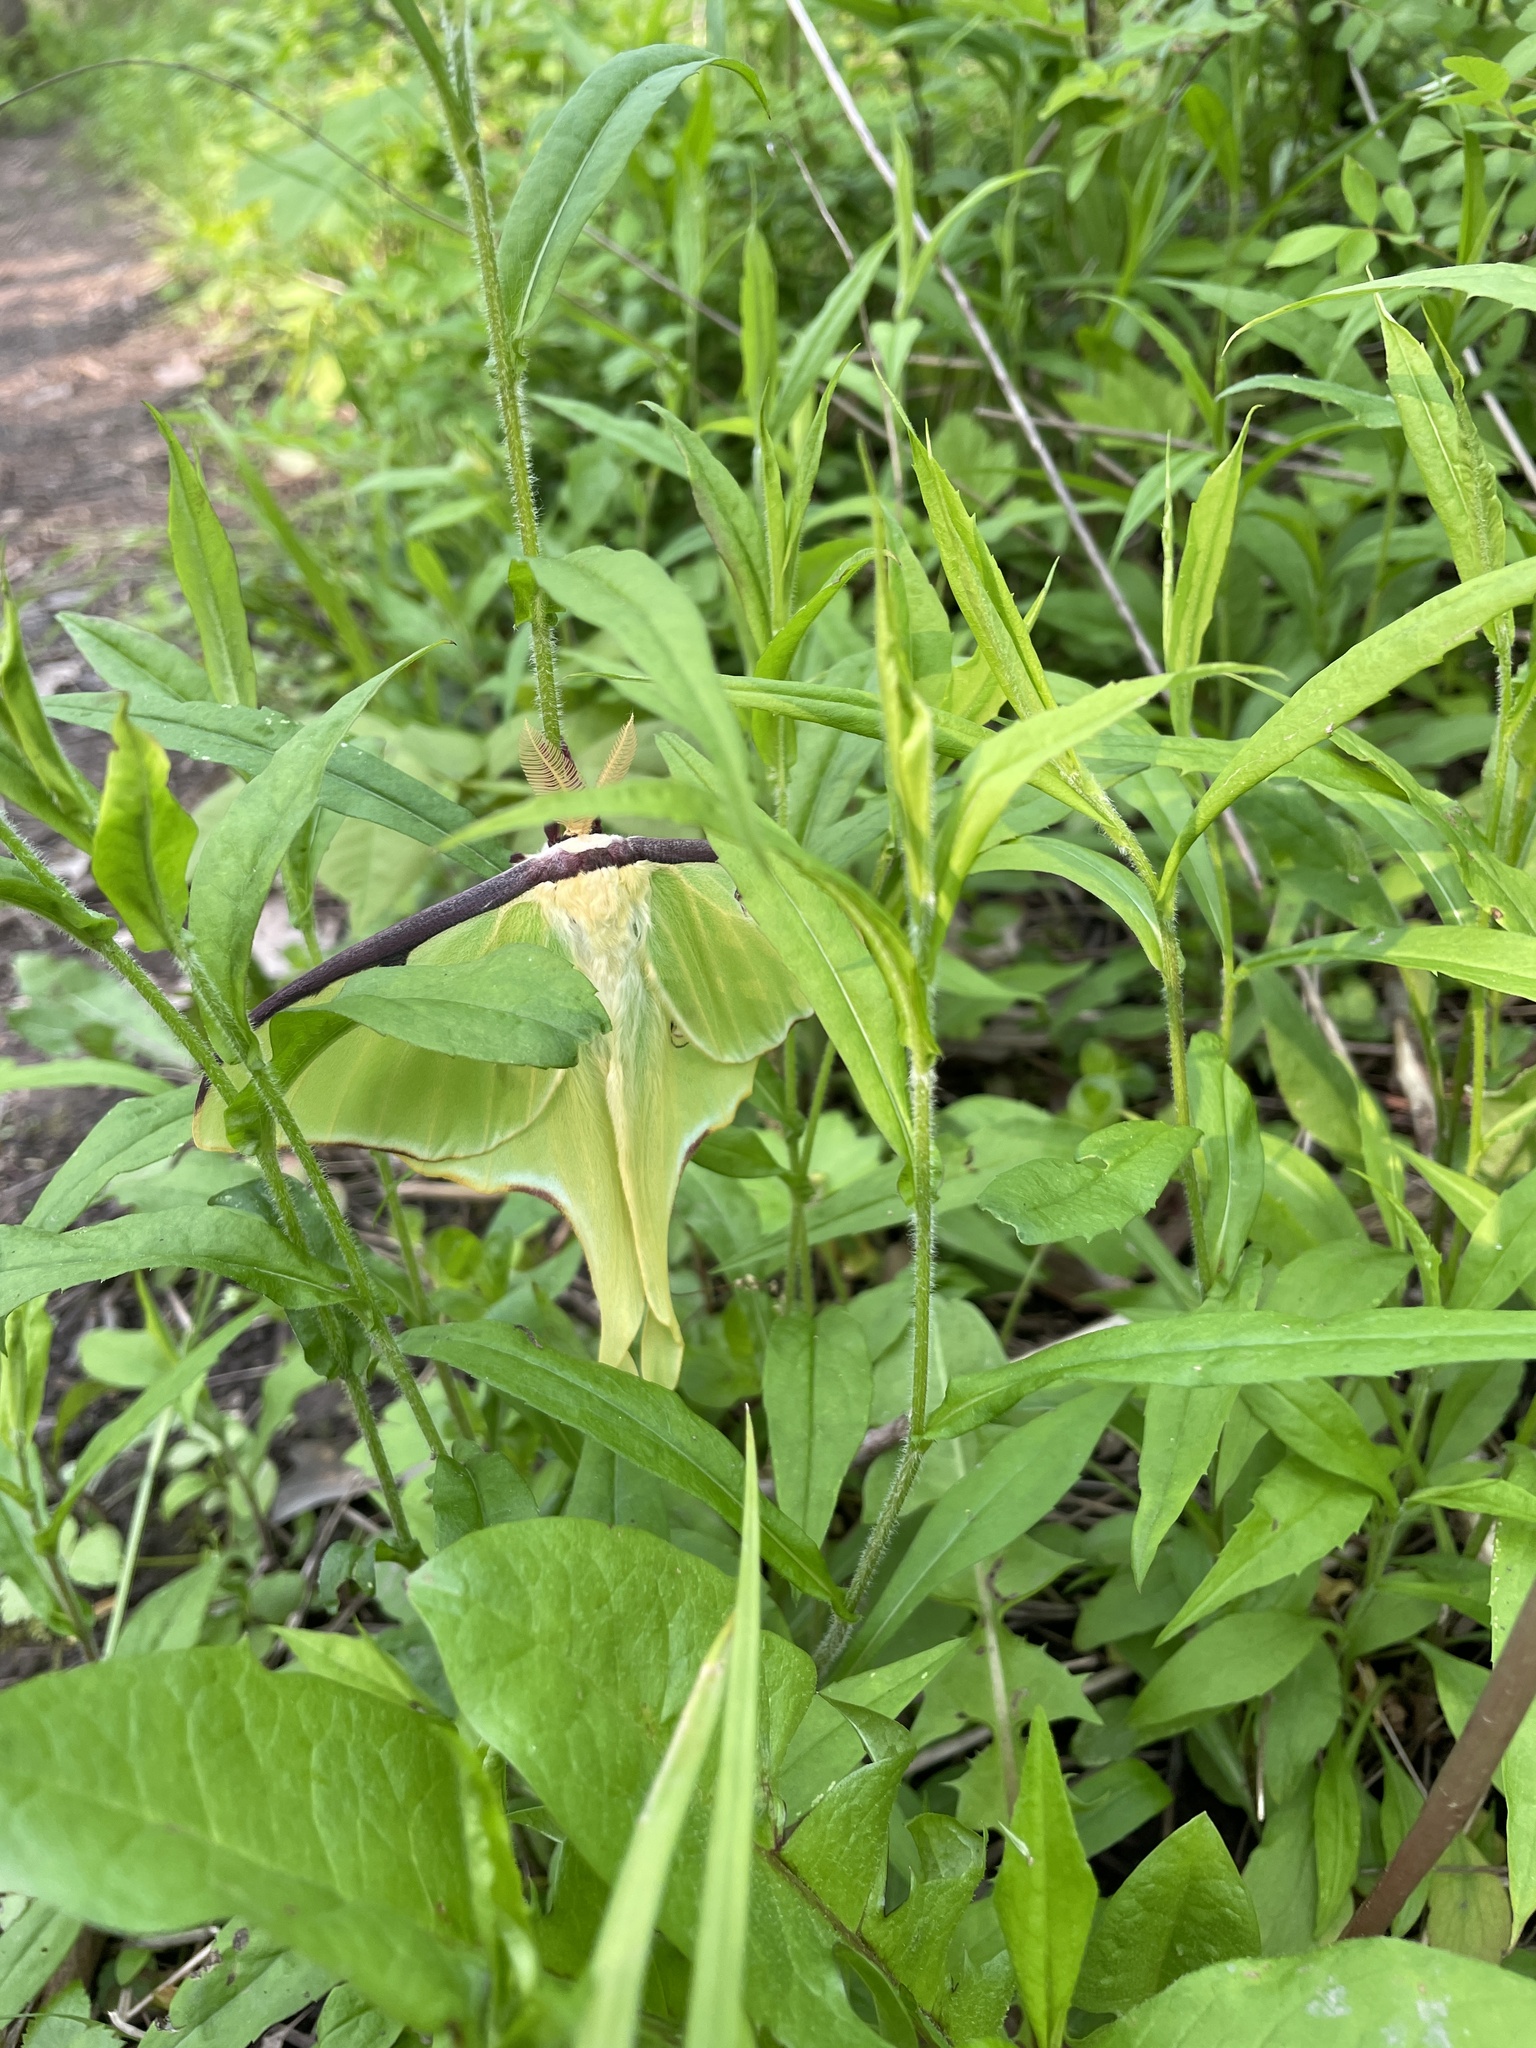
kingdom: Animalia
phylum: Arthropoda
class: Insecta
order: Lepidoptera
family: Saturniidae
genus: Actias
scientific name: Actias luna
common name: Luna moth
